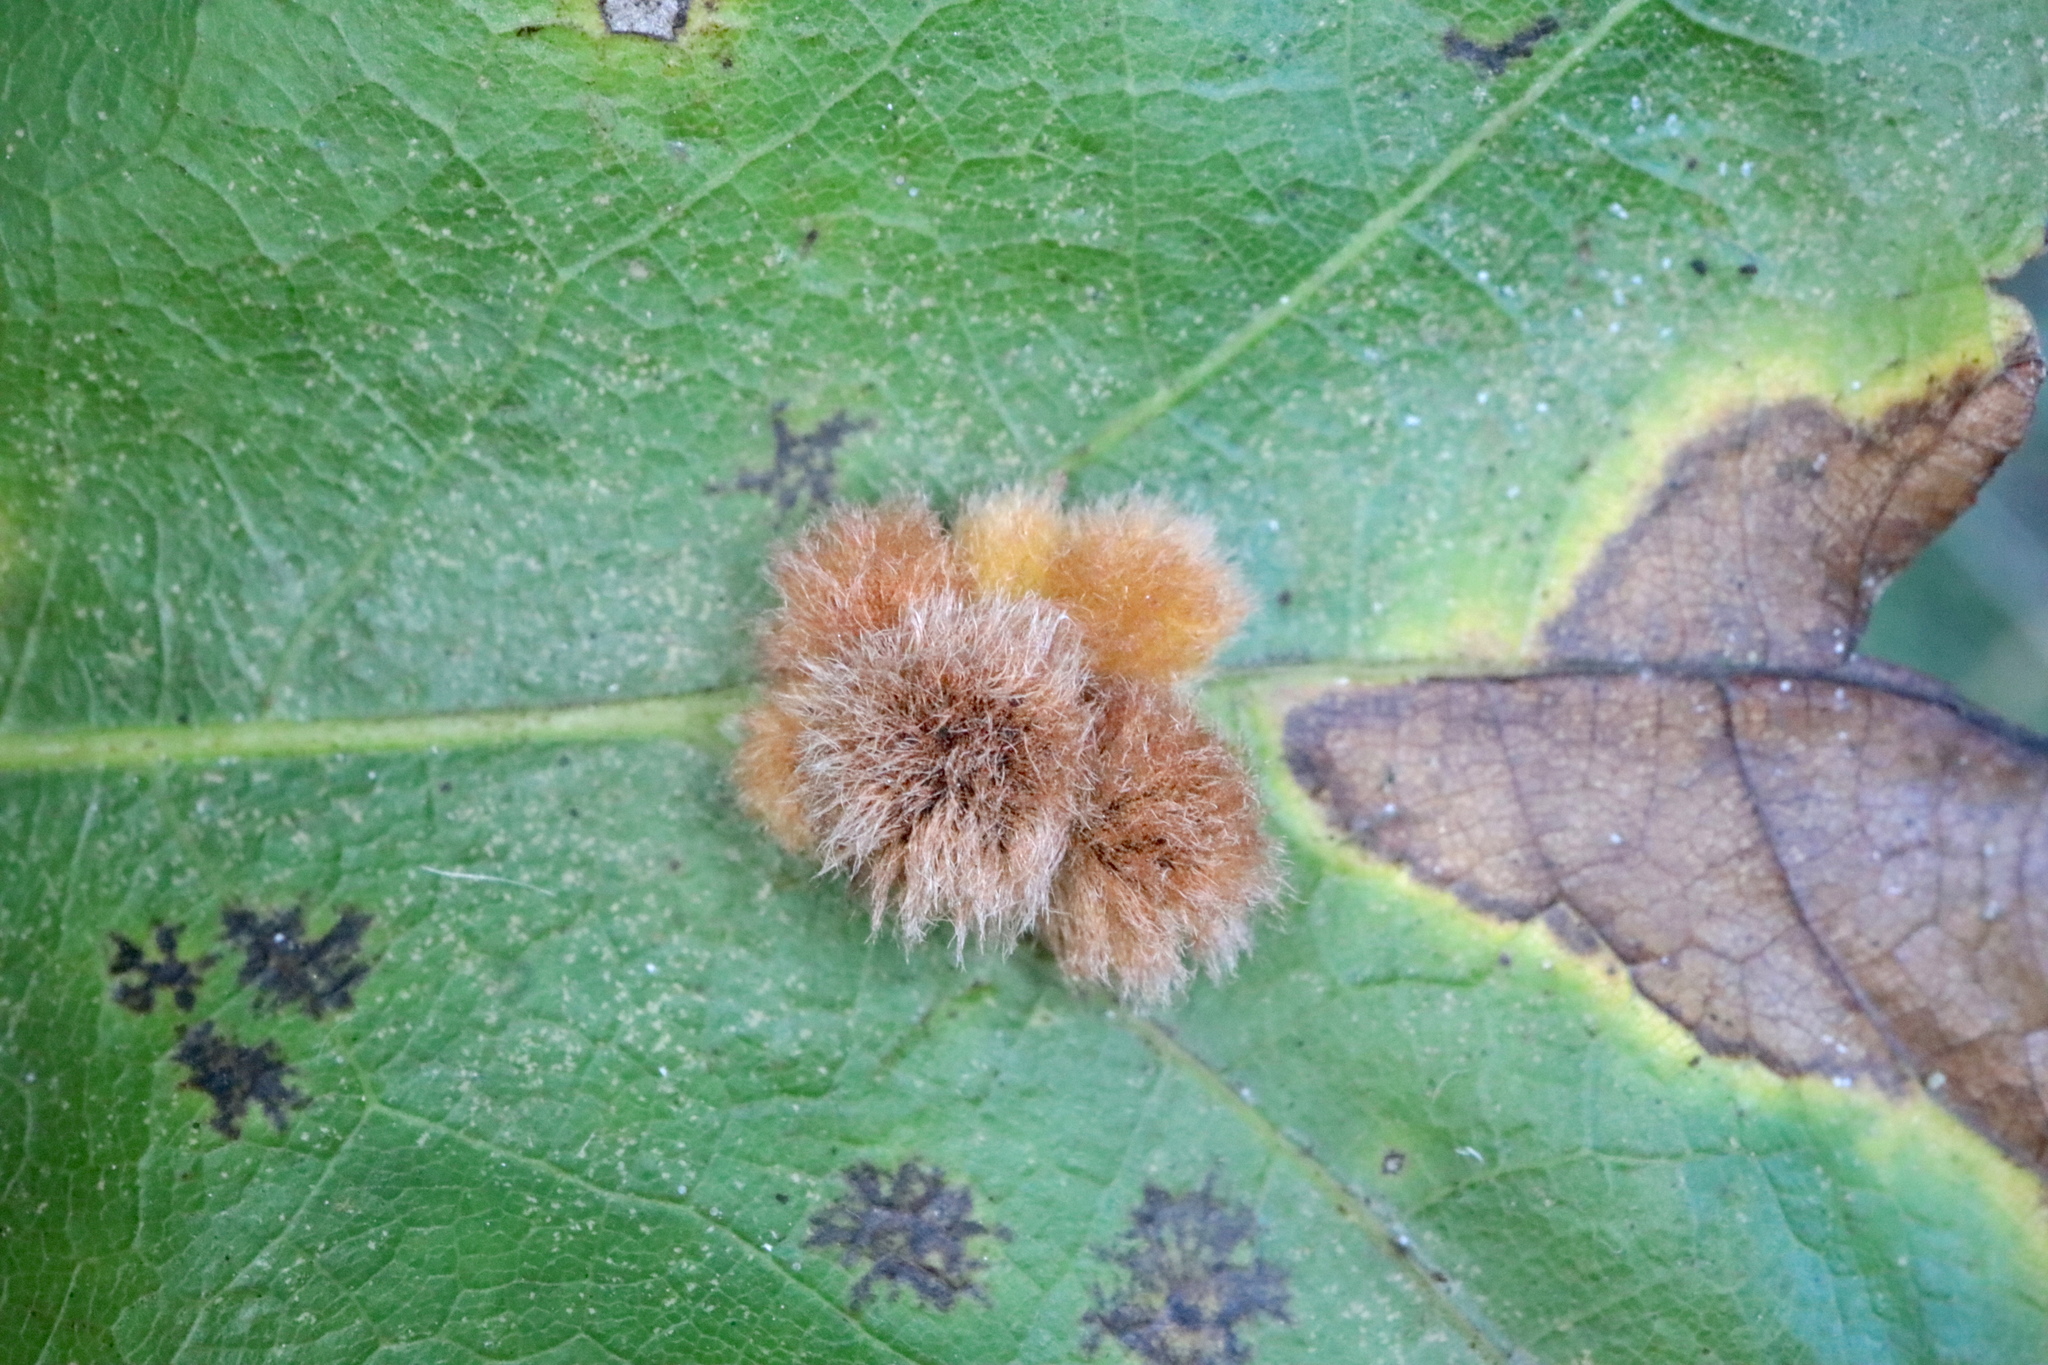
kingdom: Animalia
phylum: Arthropoda
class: Insecta
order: Hymenoptera
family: Cynipidae
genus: Callirhytis
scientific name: Callirhytis
